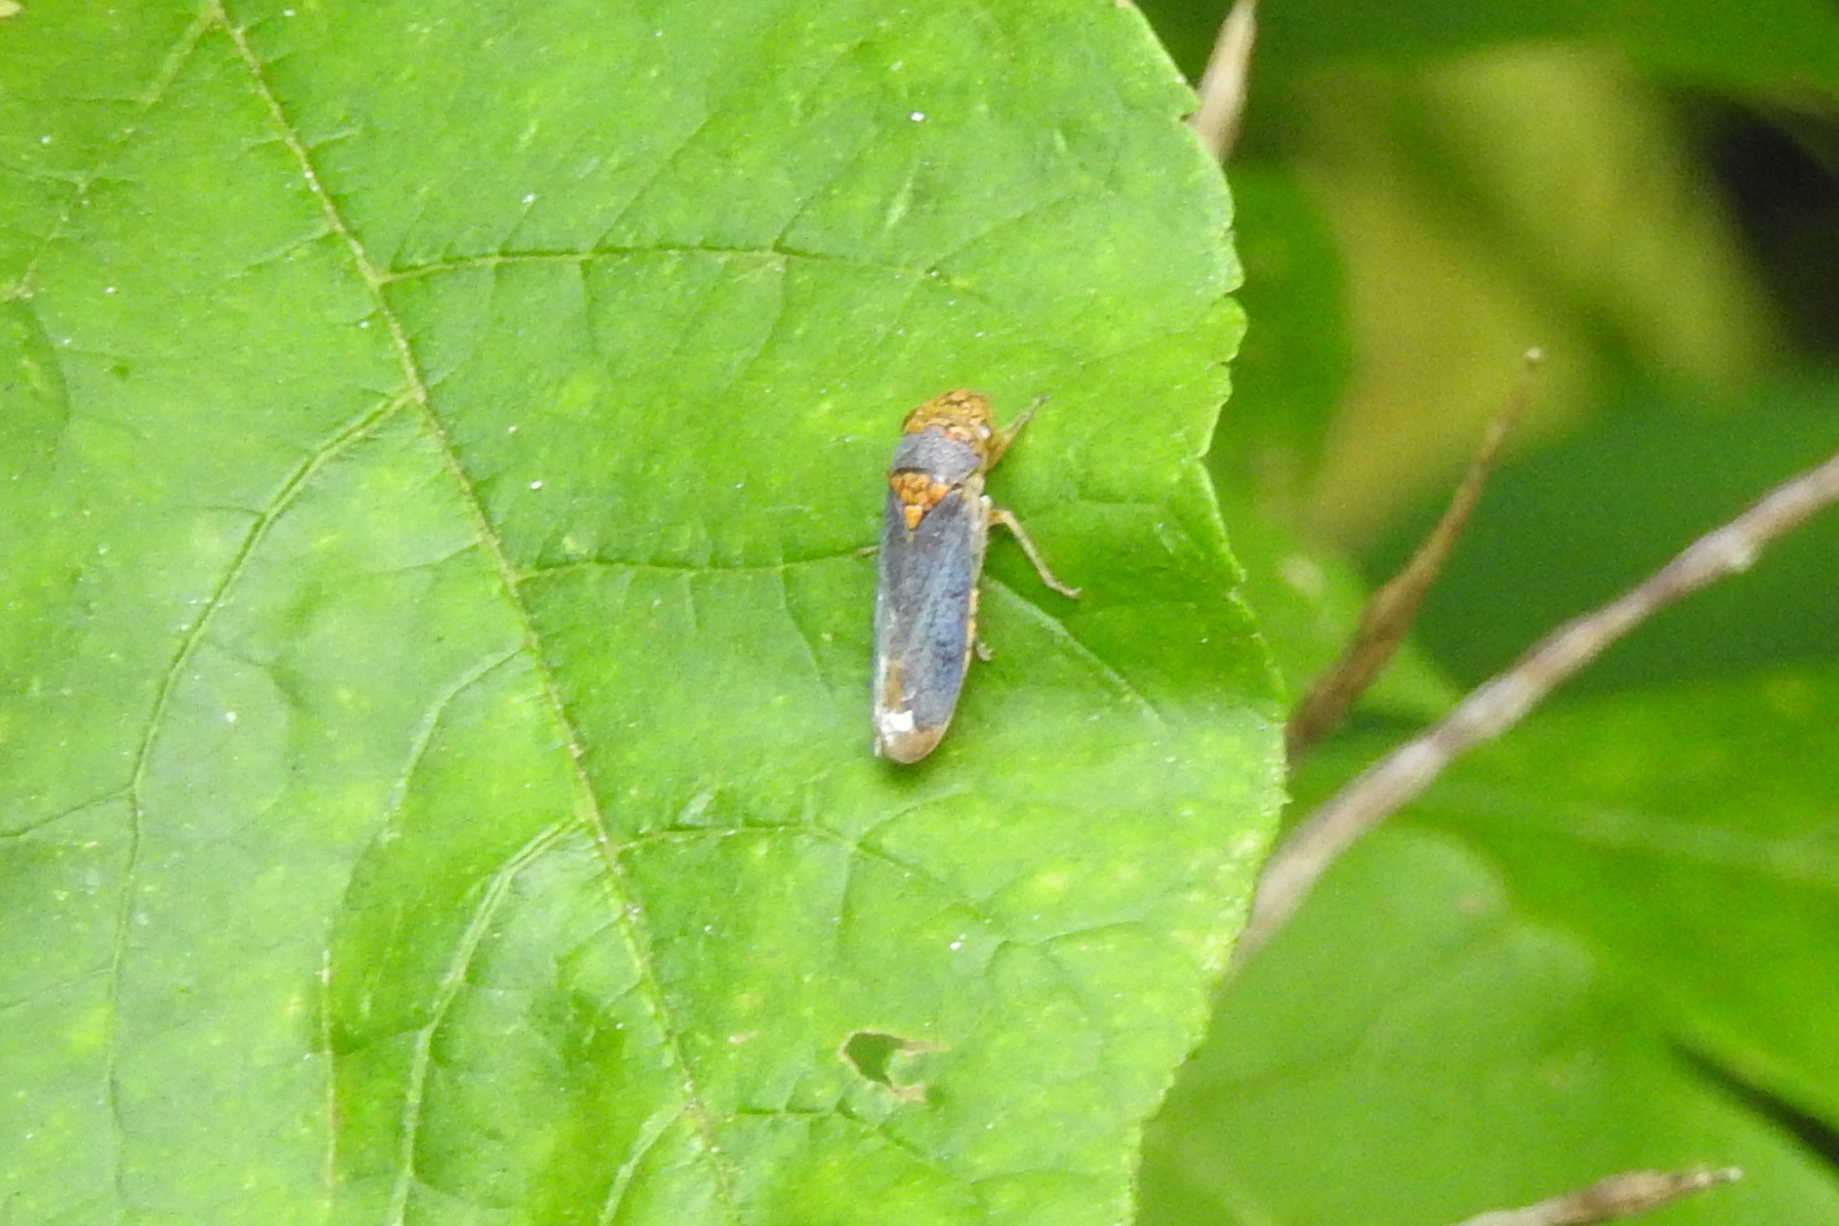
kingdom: Animalia
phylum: Arthropoda
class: Insecta
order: Hemiptera
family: Cicadellidae
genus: Oncometopia
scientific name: Oncometopia orbona
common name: Broad-headed sharpshooter
